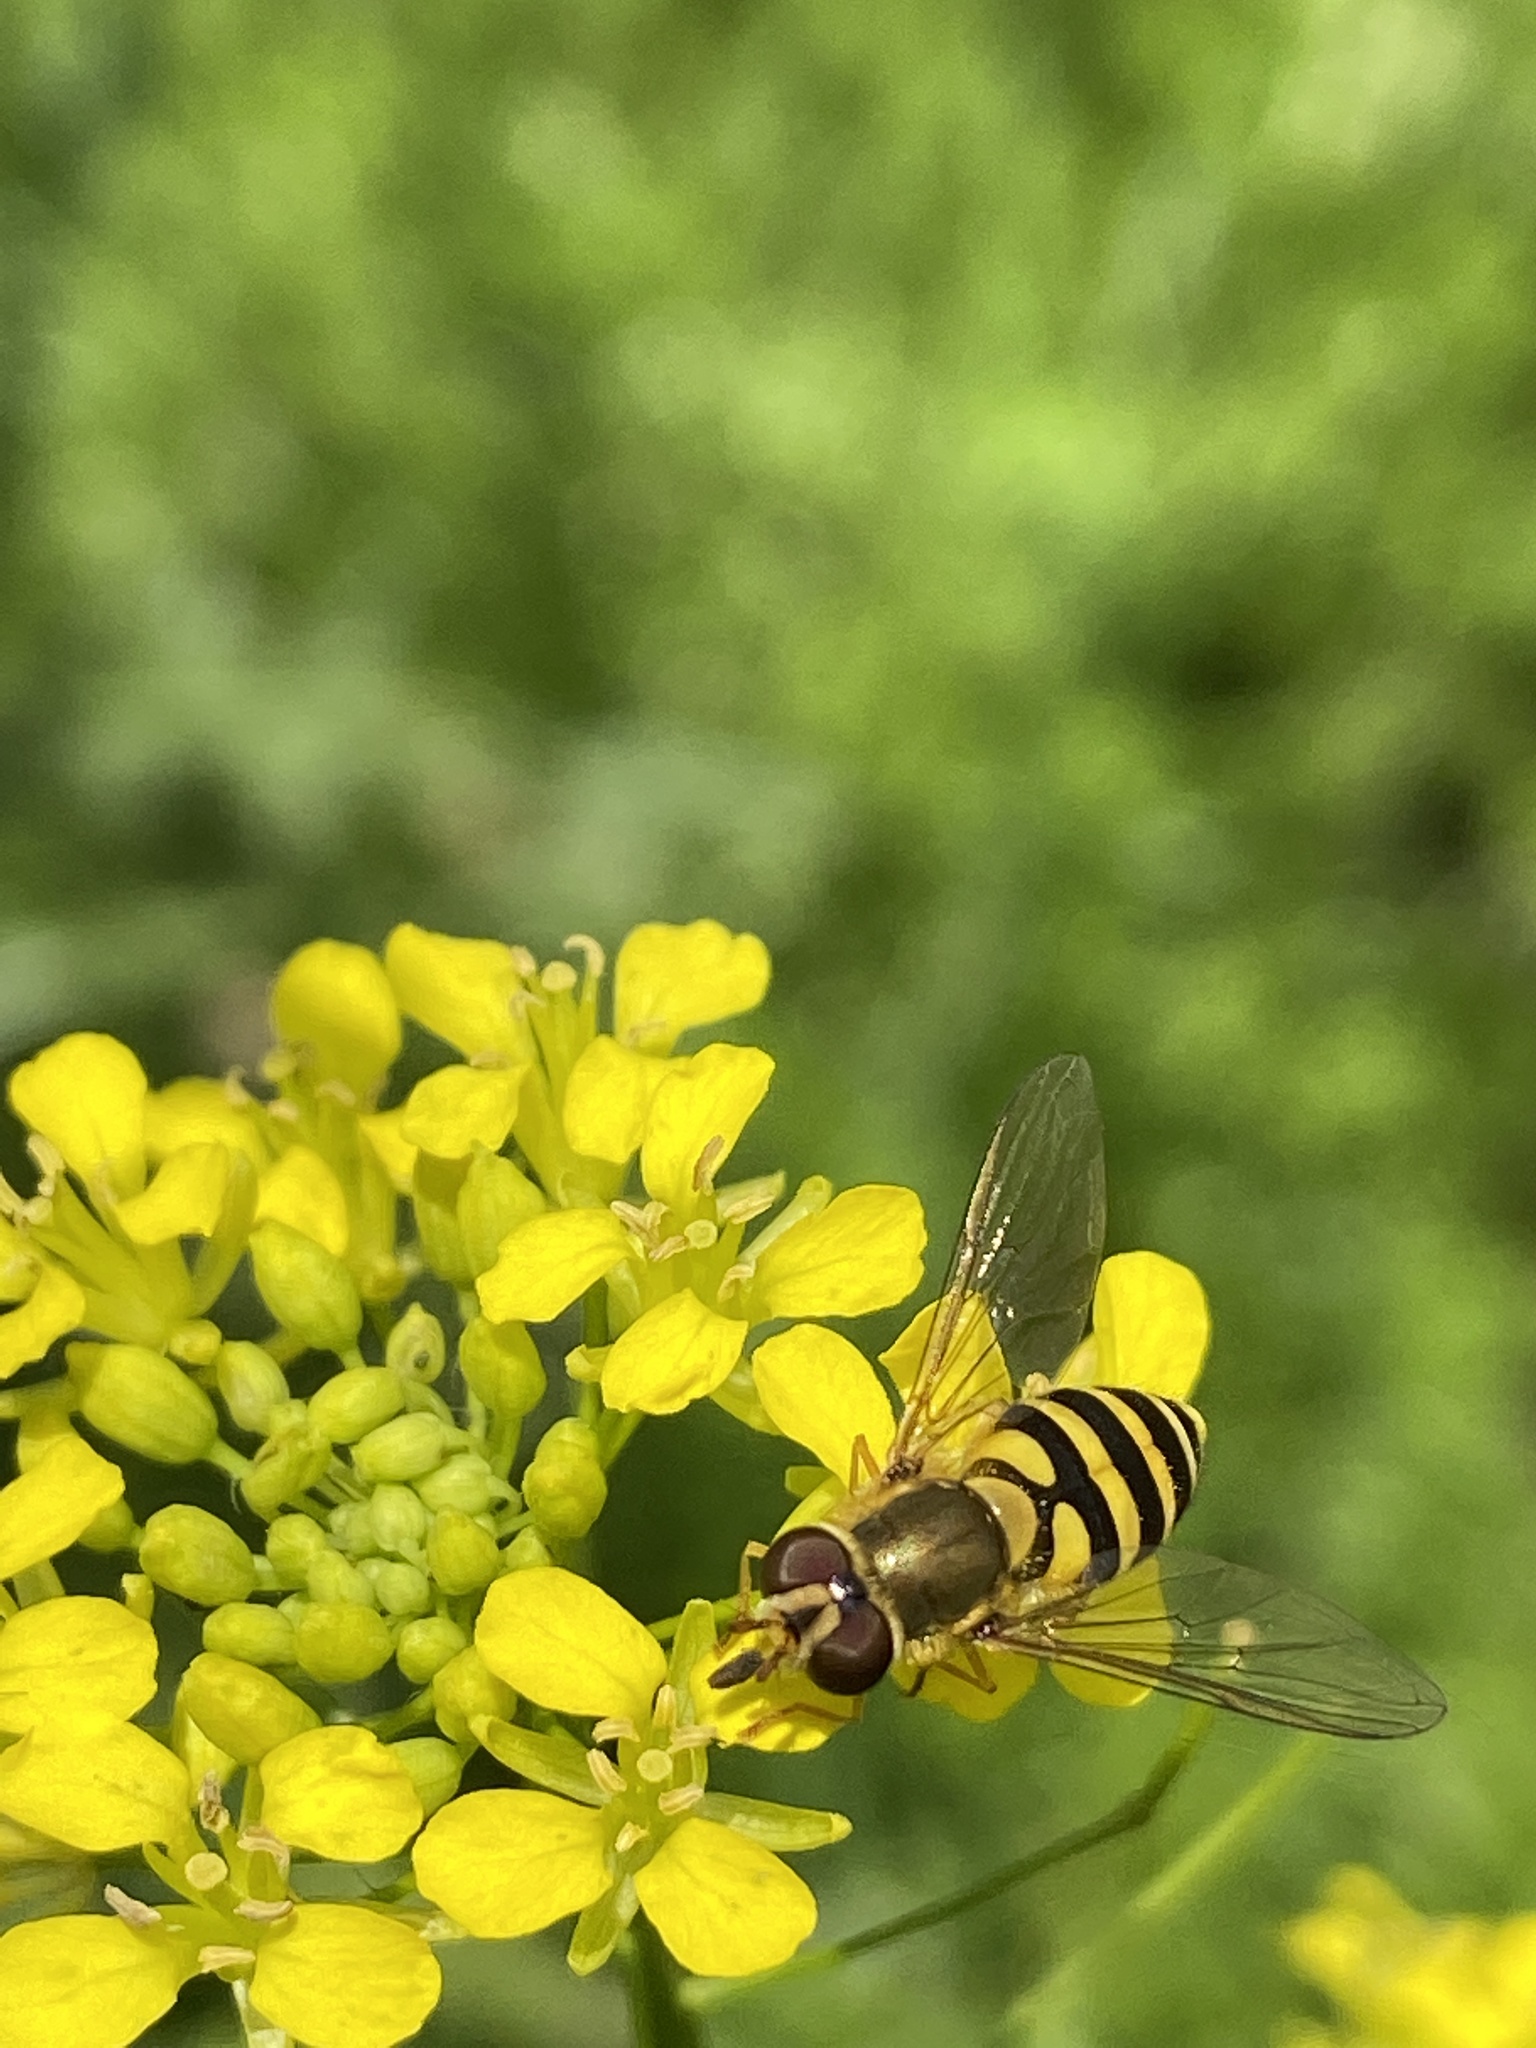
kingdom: Animalia
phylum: Arthropoda
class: Insecta
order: Diptera
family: Syrphidae
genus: Syrphus
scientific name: Syrphus
